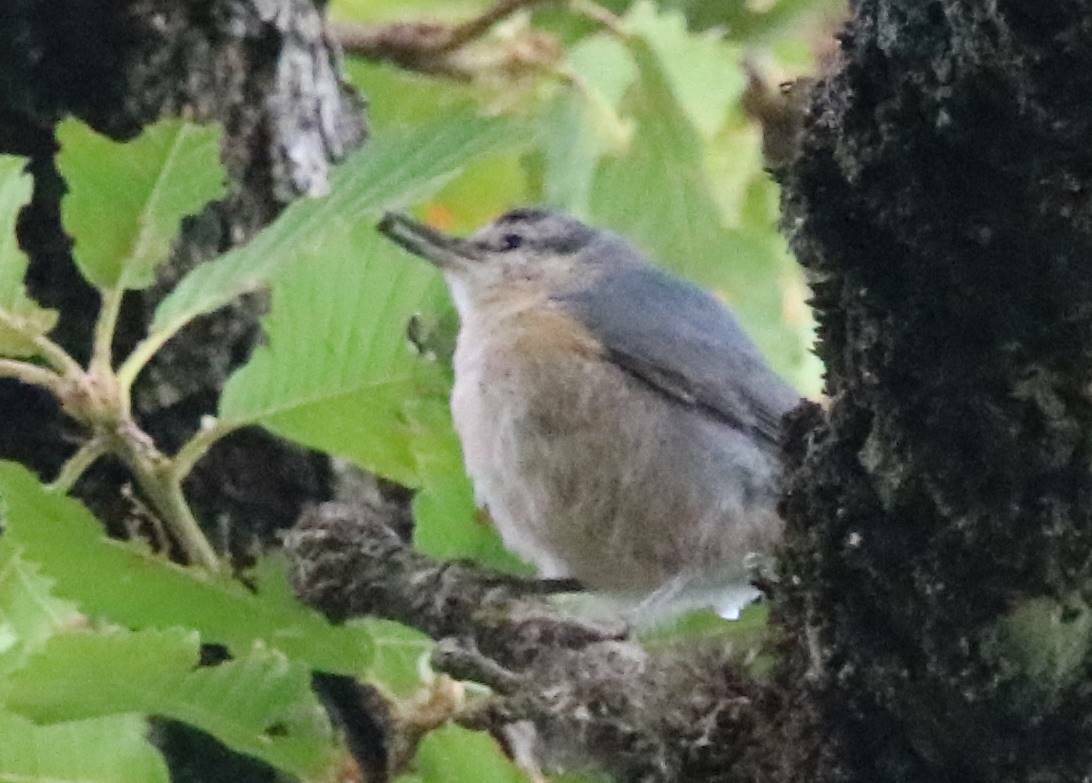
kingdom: Animalia
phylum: Chordata
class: Aves
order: Passeriformes
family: Sittidae
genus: Sitta
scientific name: Sitta ledanti
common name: Algerian nuthatch
